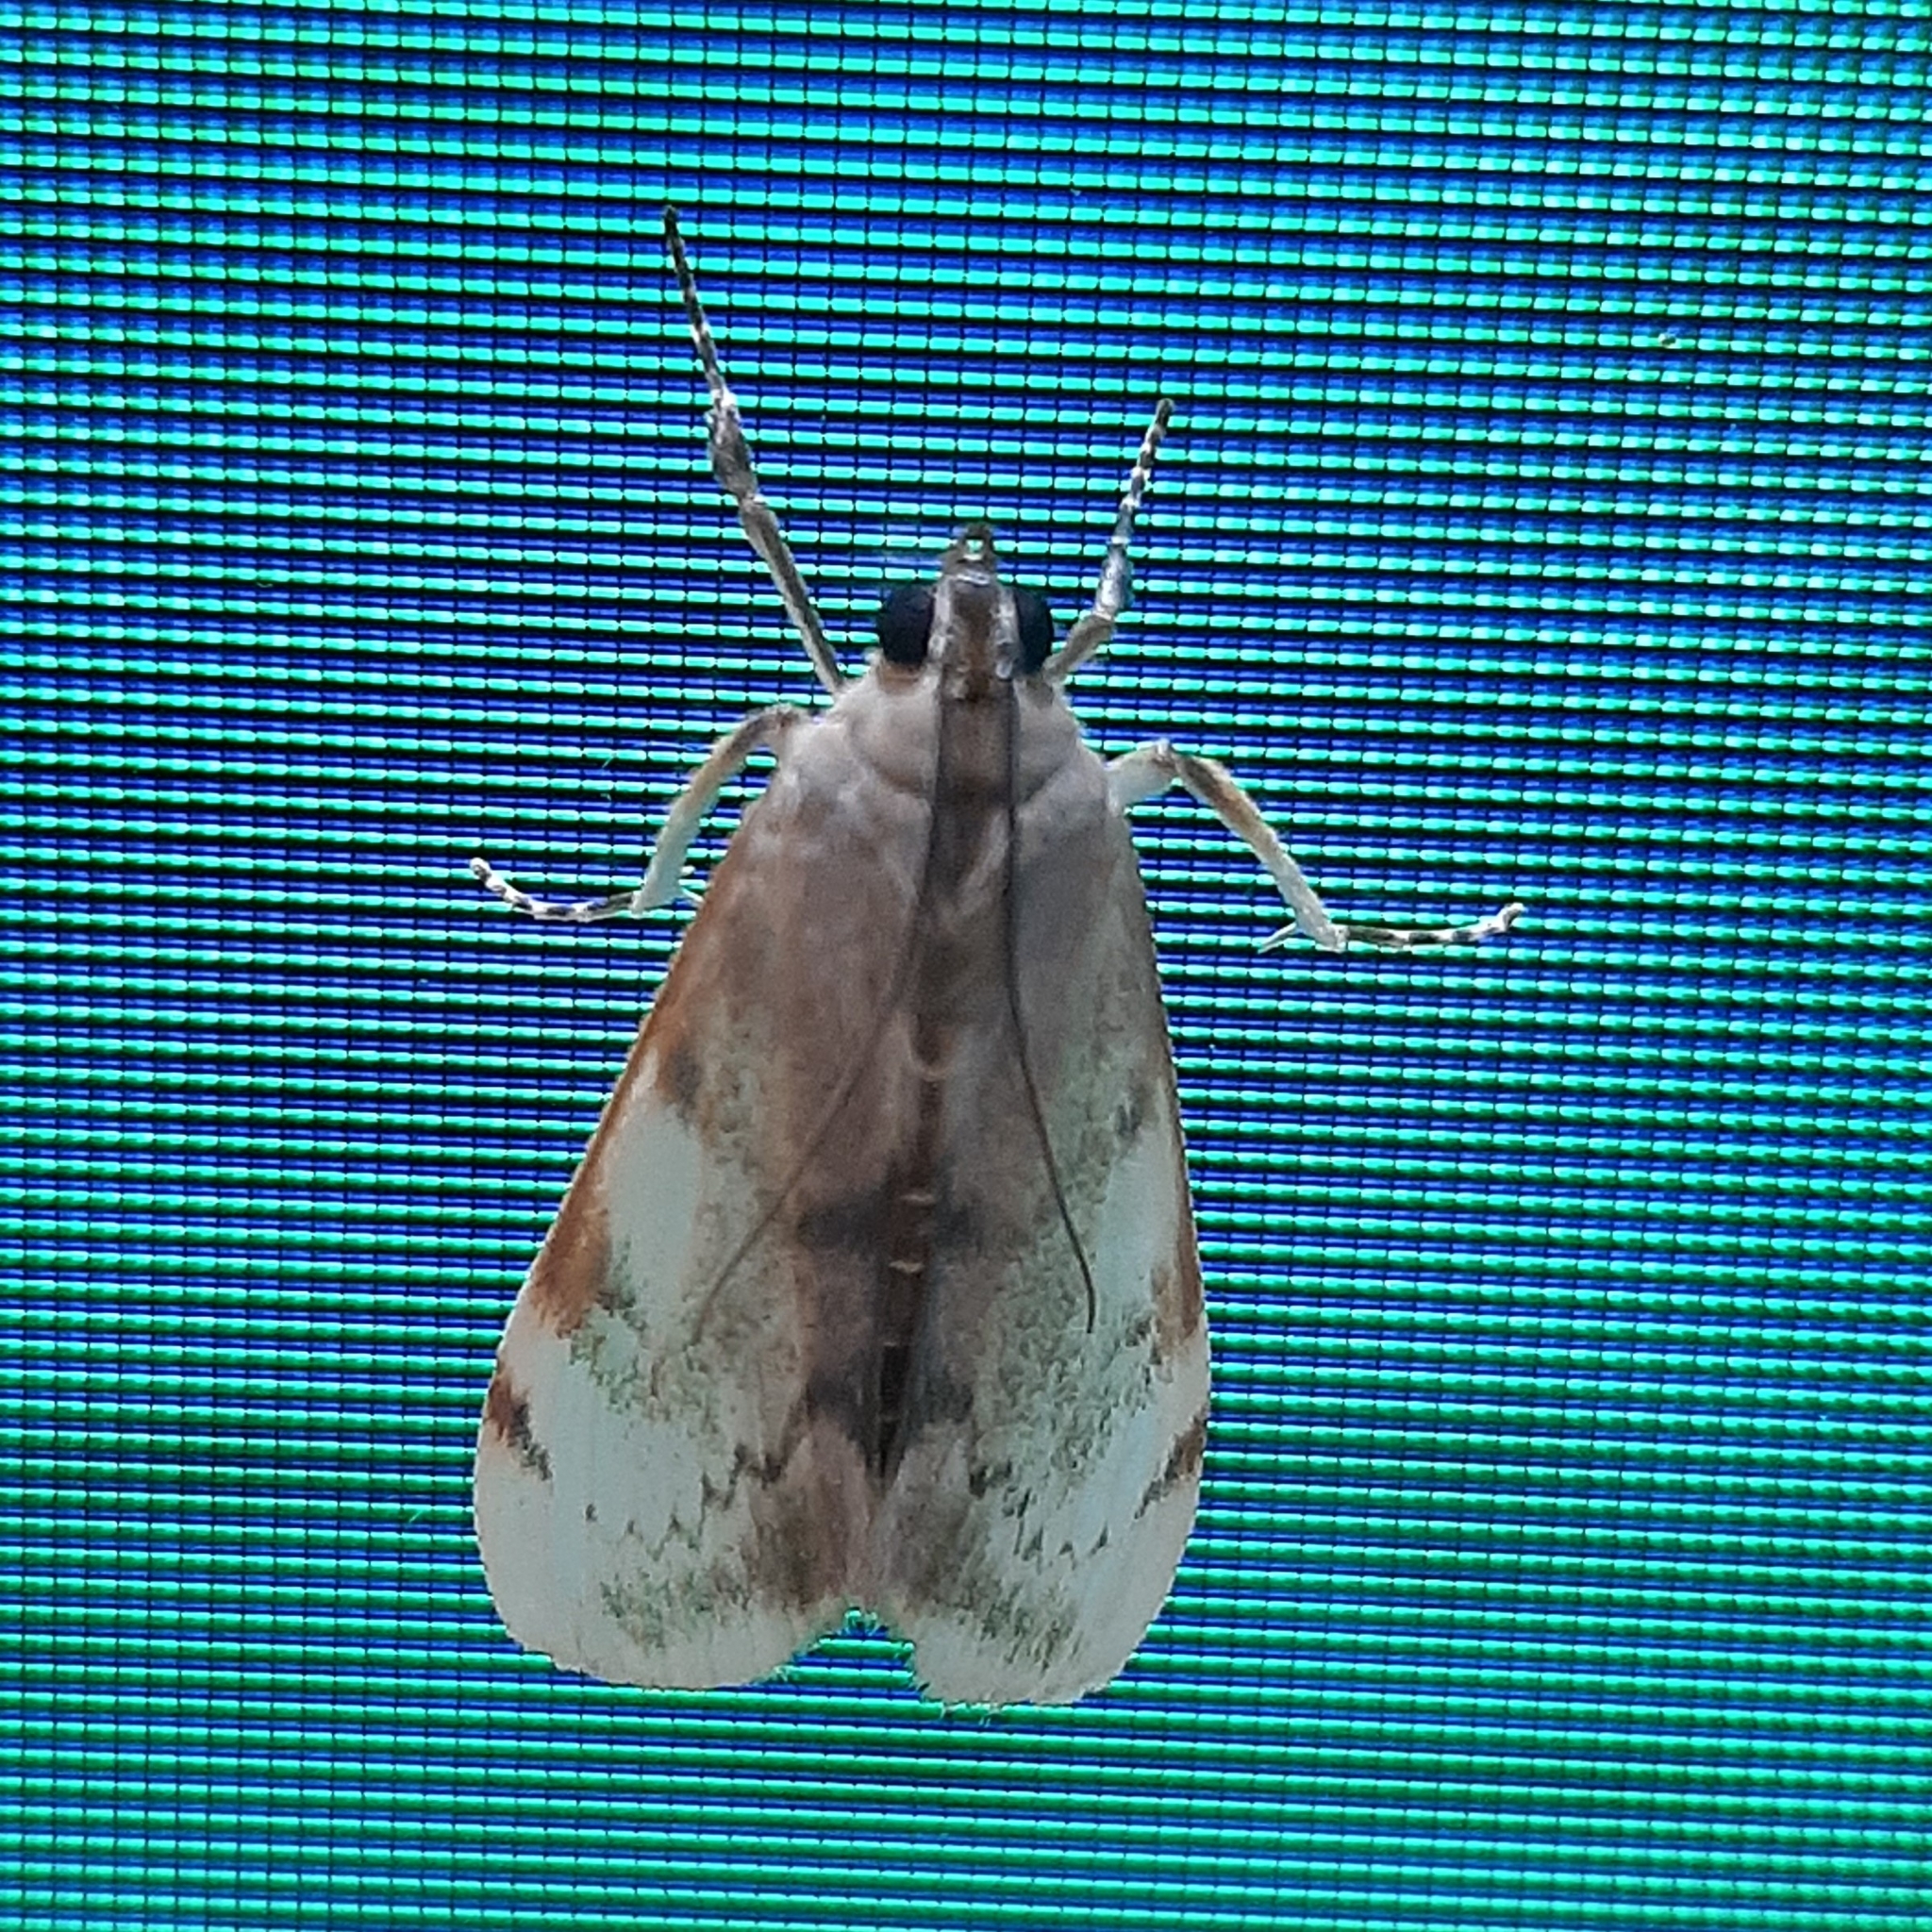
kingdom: Animalia
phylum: Arthropoda
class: Insecta
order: Lepidoptera
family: Crambidae
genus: Cliniodes
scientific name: Cliniodes euphrosinalis
